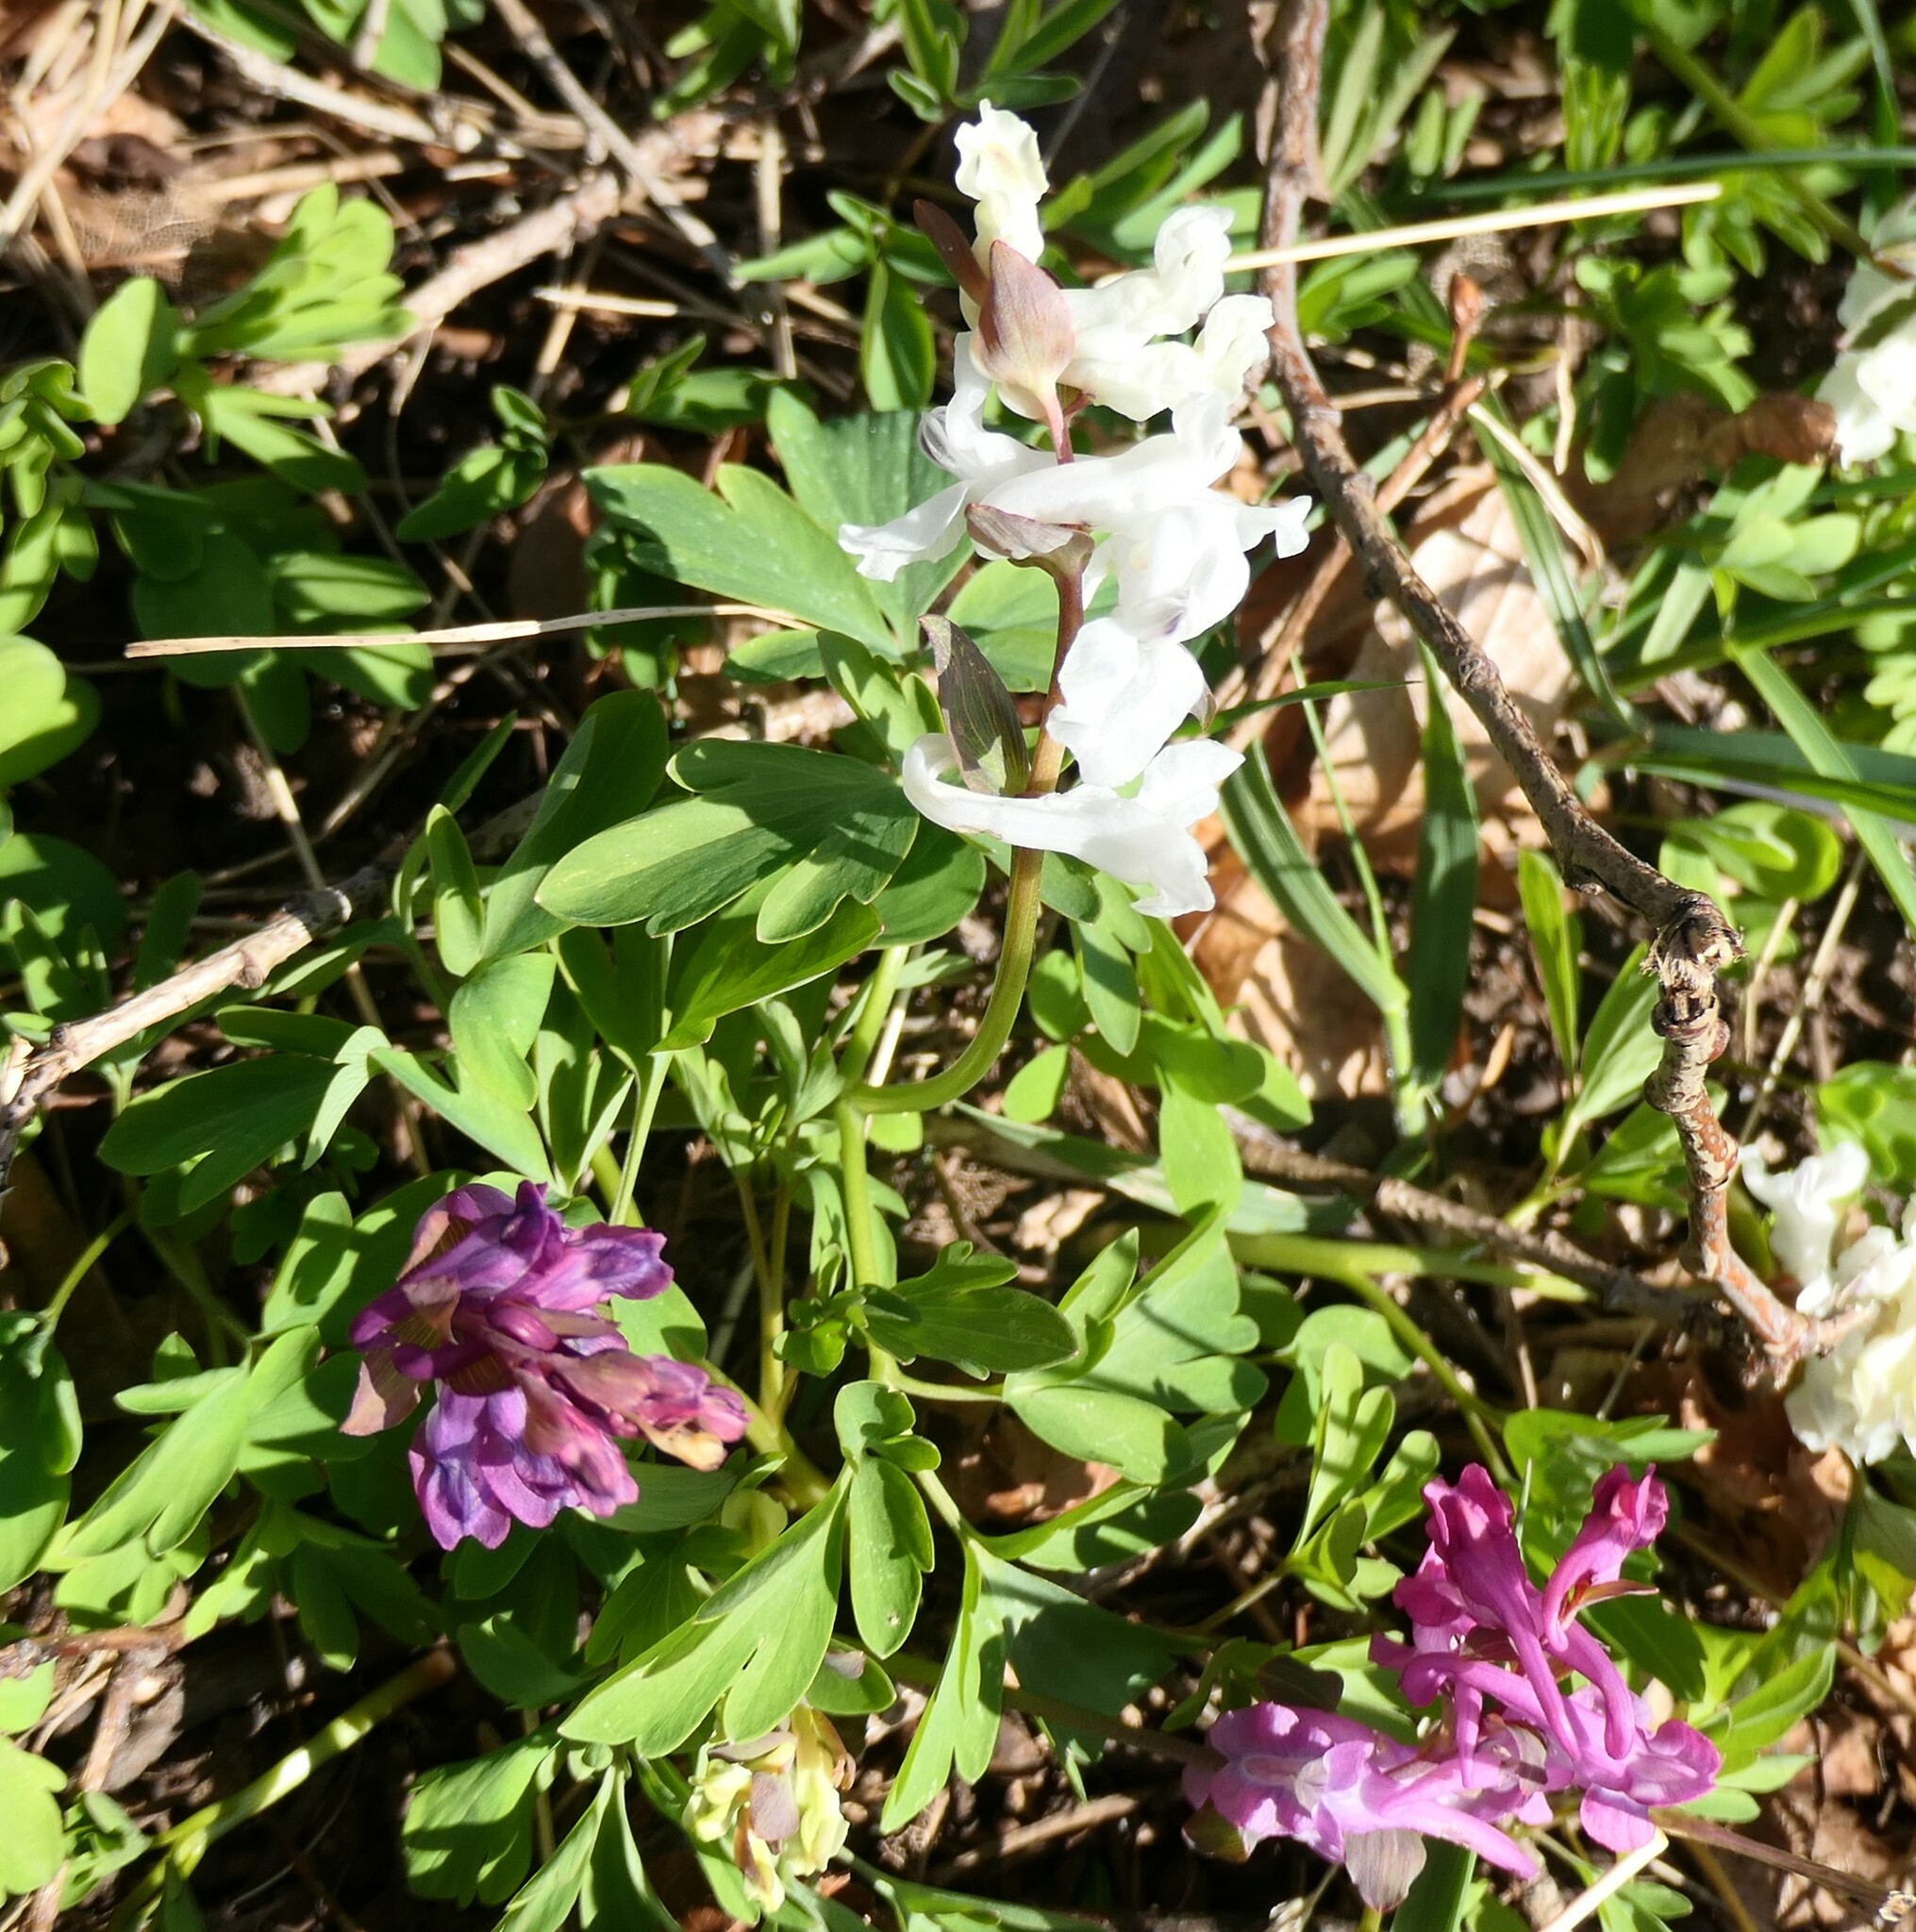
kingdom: Plantae
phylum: Tracheophyta
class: Magnoliopsida
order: Ranunculales
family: Papaveraceae
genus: Corydalis
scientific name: Corydalis cava
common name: Hollowroot
